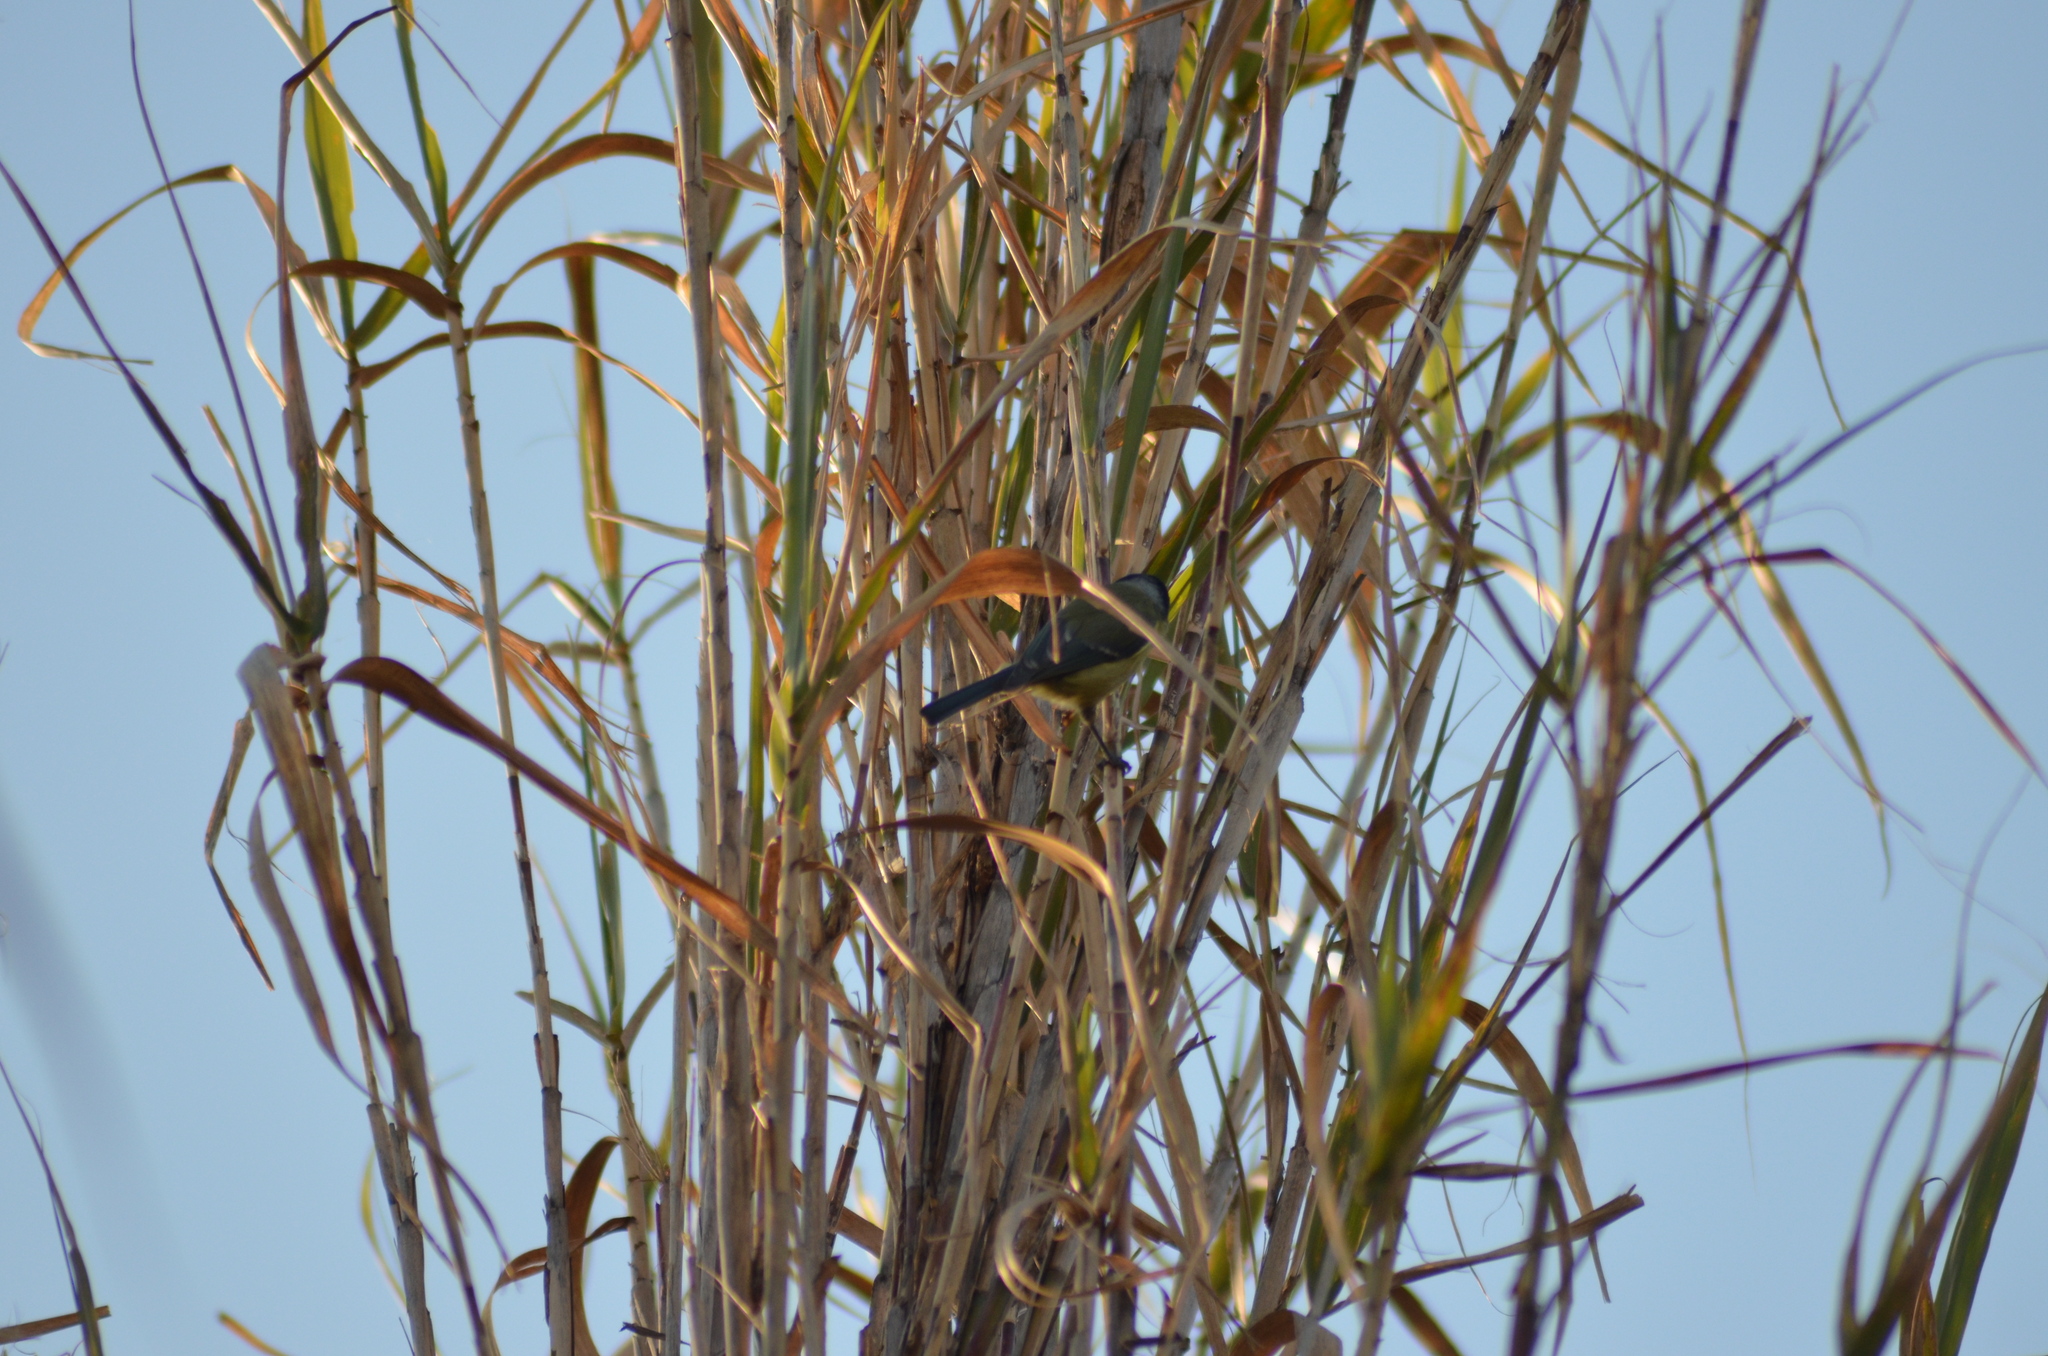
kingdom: Animalia
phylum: Chordata
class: Aves
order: Passeriformes
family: Paridae
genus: Cyanistes
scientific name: Cyanistes caeruleus
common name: Eurasian blue tit
